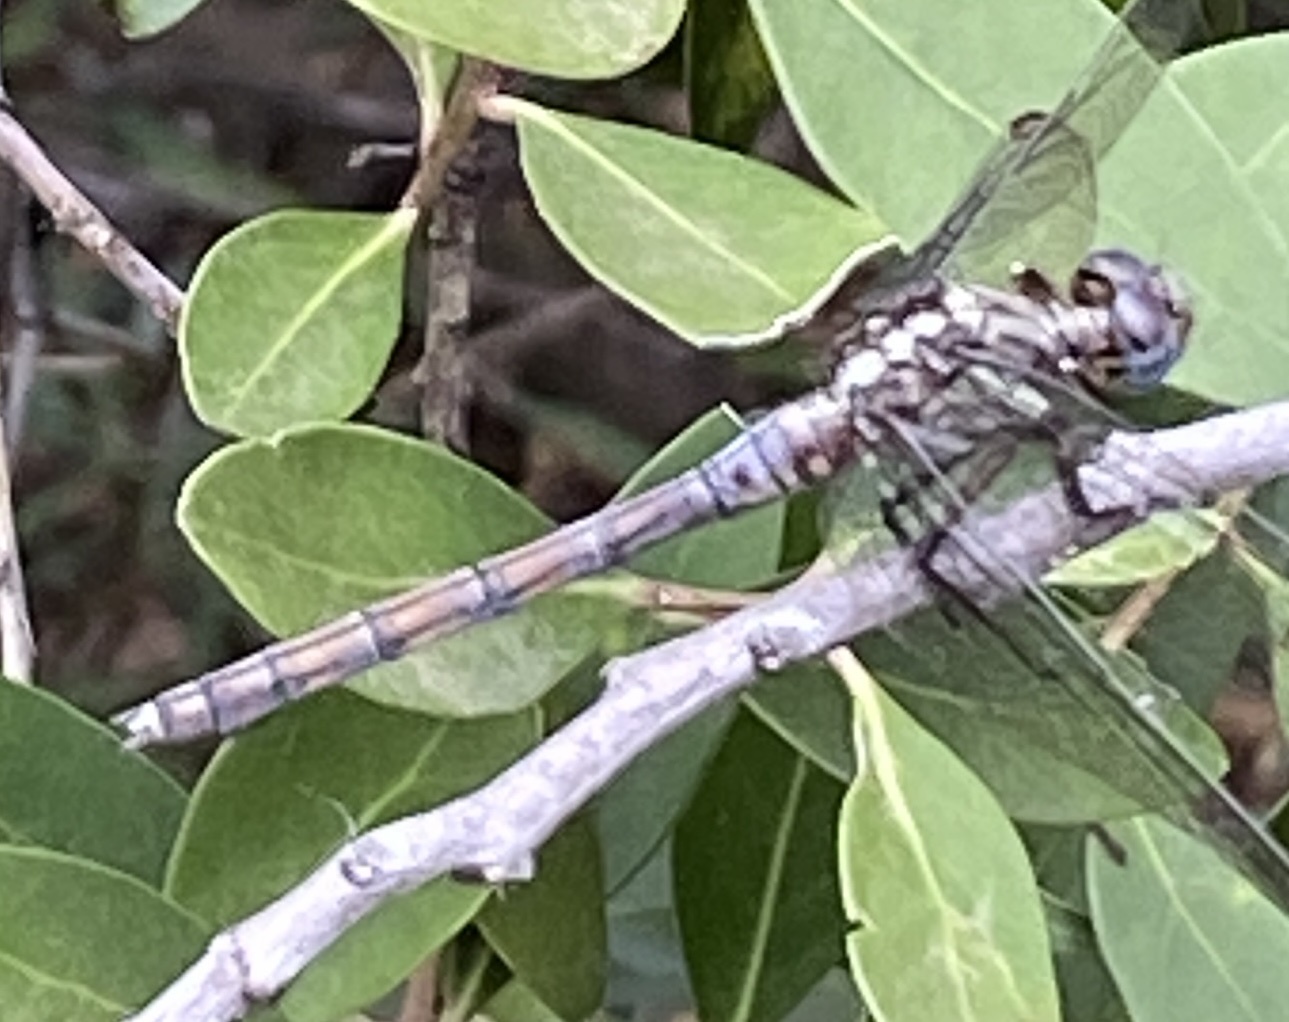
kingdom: Animalia
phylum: Arthropoda
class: Insecta
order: Odonata
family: Libellulidae
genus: Orthetrum
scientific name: Orthetrum julia
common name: Julia skimmer
